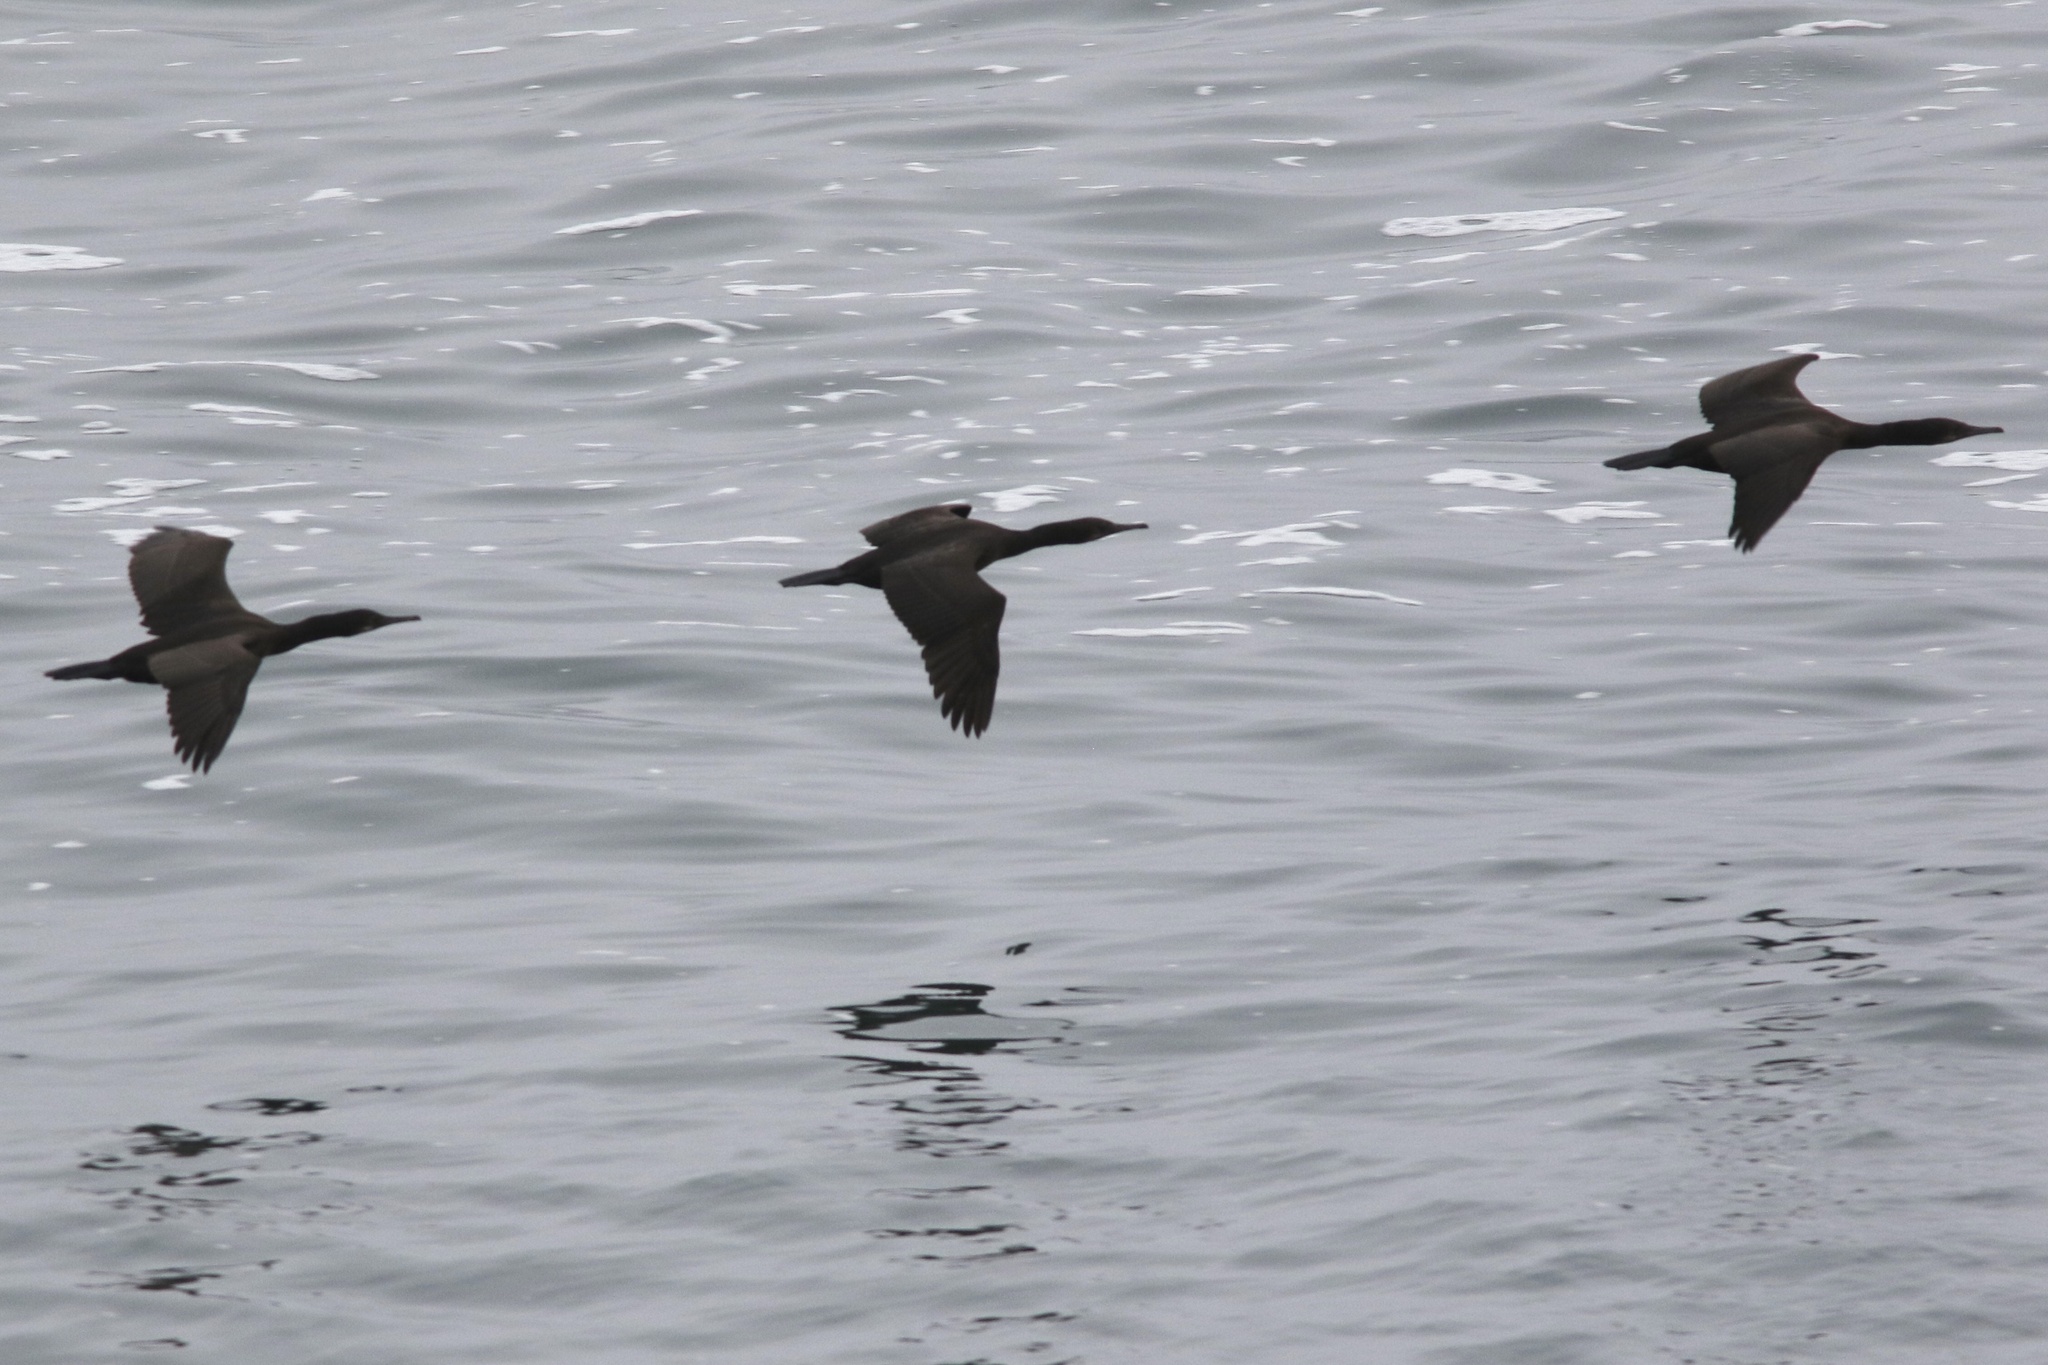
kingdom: Animalia
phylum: Chordata
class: Aves
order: Suliformes
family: Phalacrocoracidae
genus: Urile
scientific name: Urile penicillatus
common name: Brandt's cormorant
